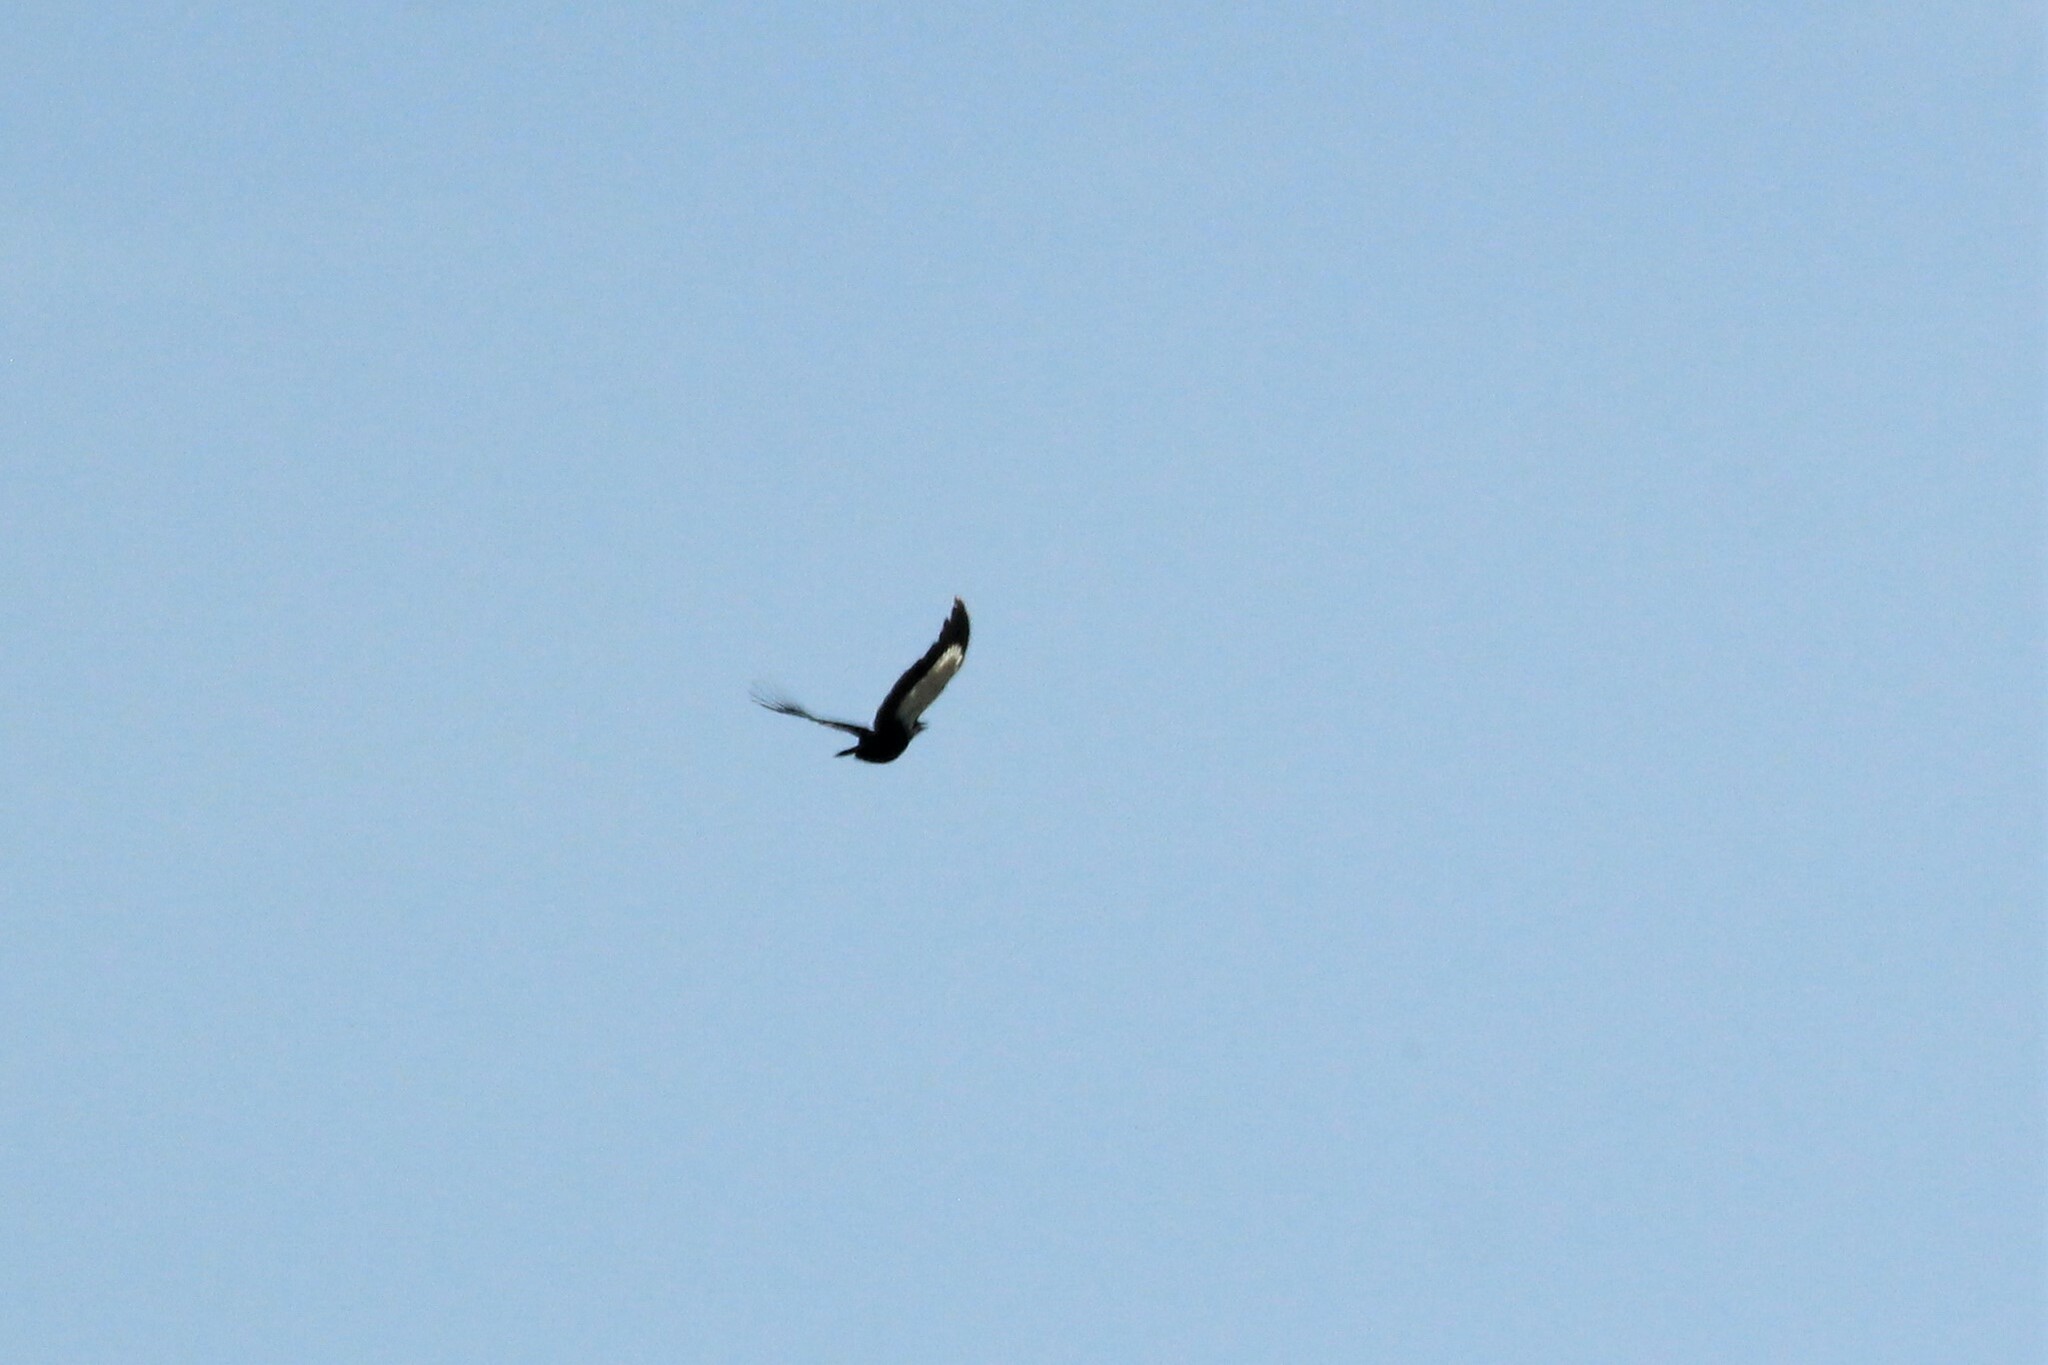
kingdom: Animalia
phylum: Chordata
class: Aves
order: Piciformes
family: Picidae
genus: Dryocopus
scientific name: Dryocopus pileatus
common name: Pileated woodpecker
